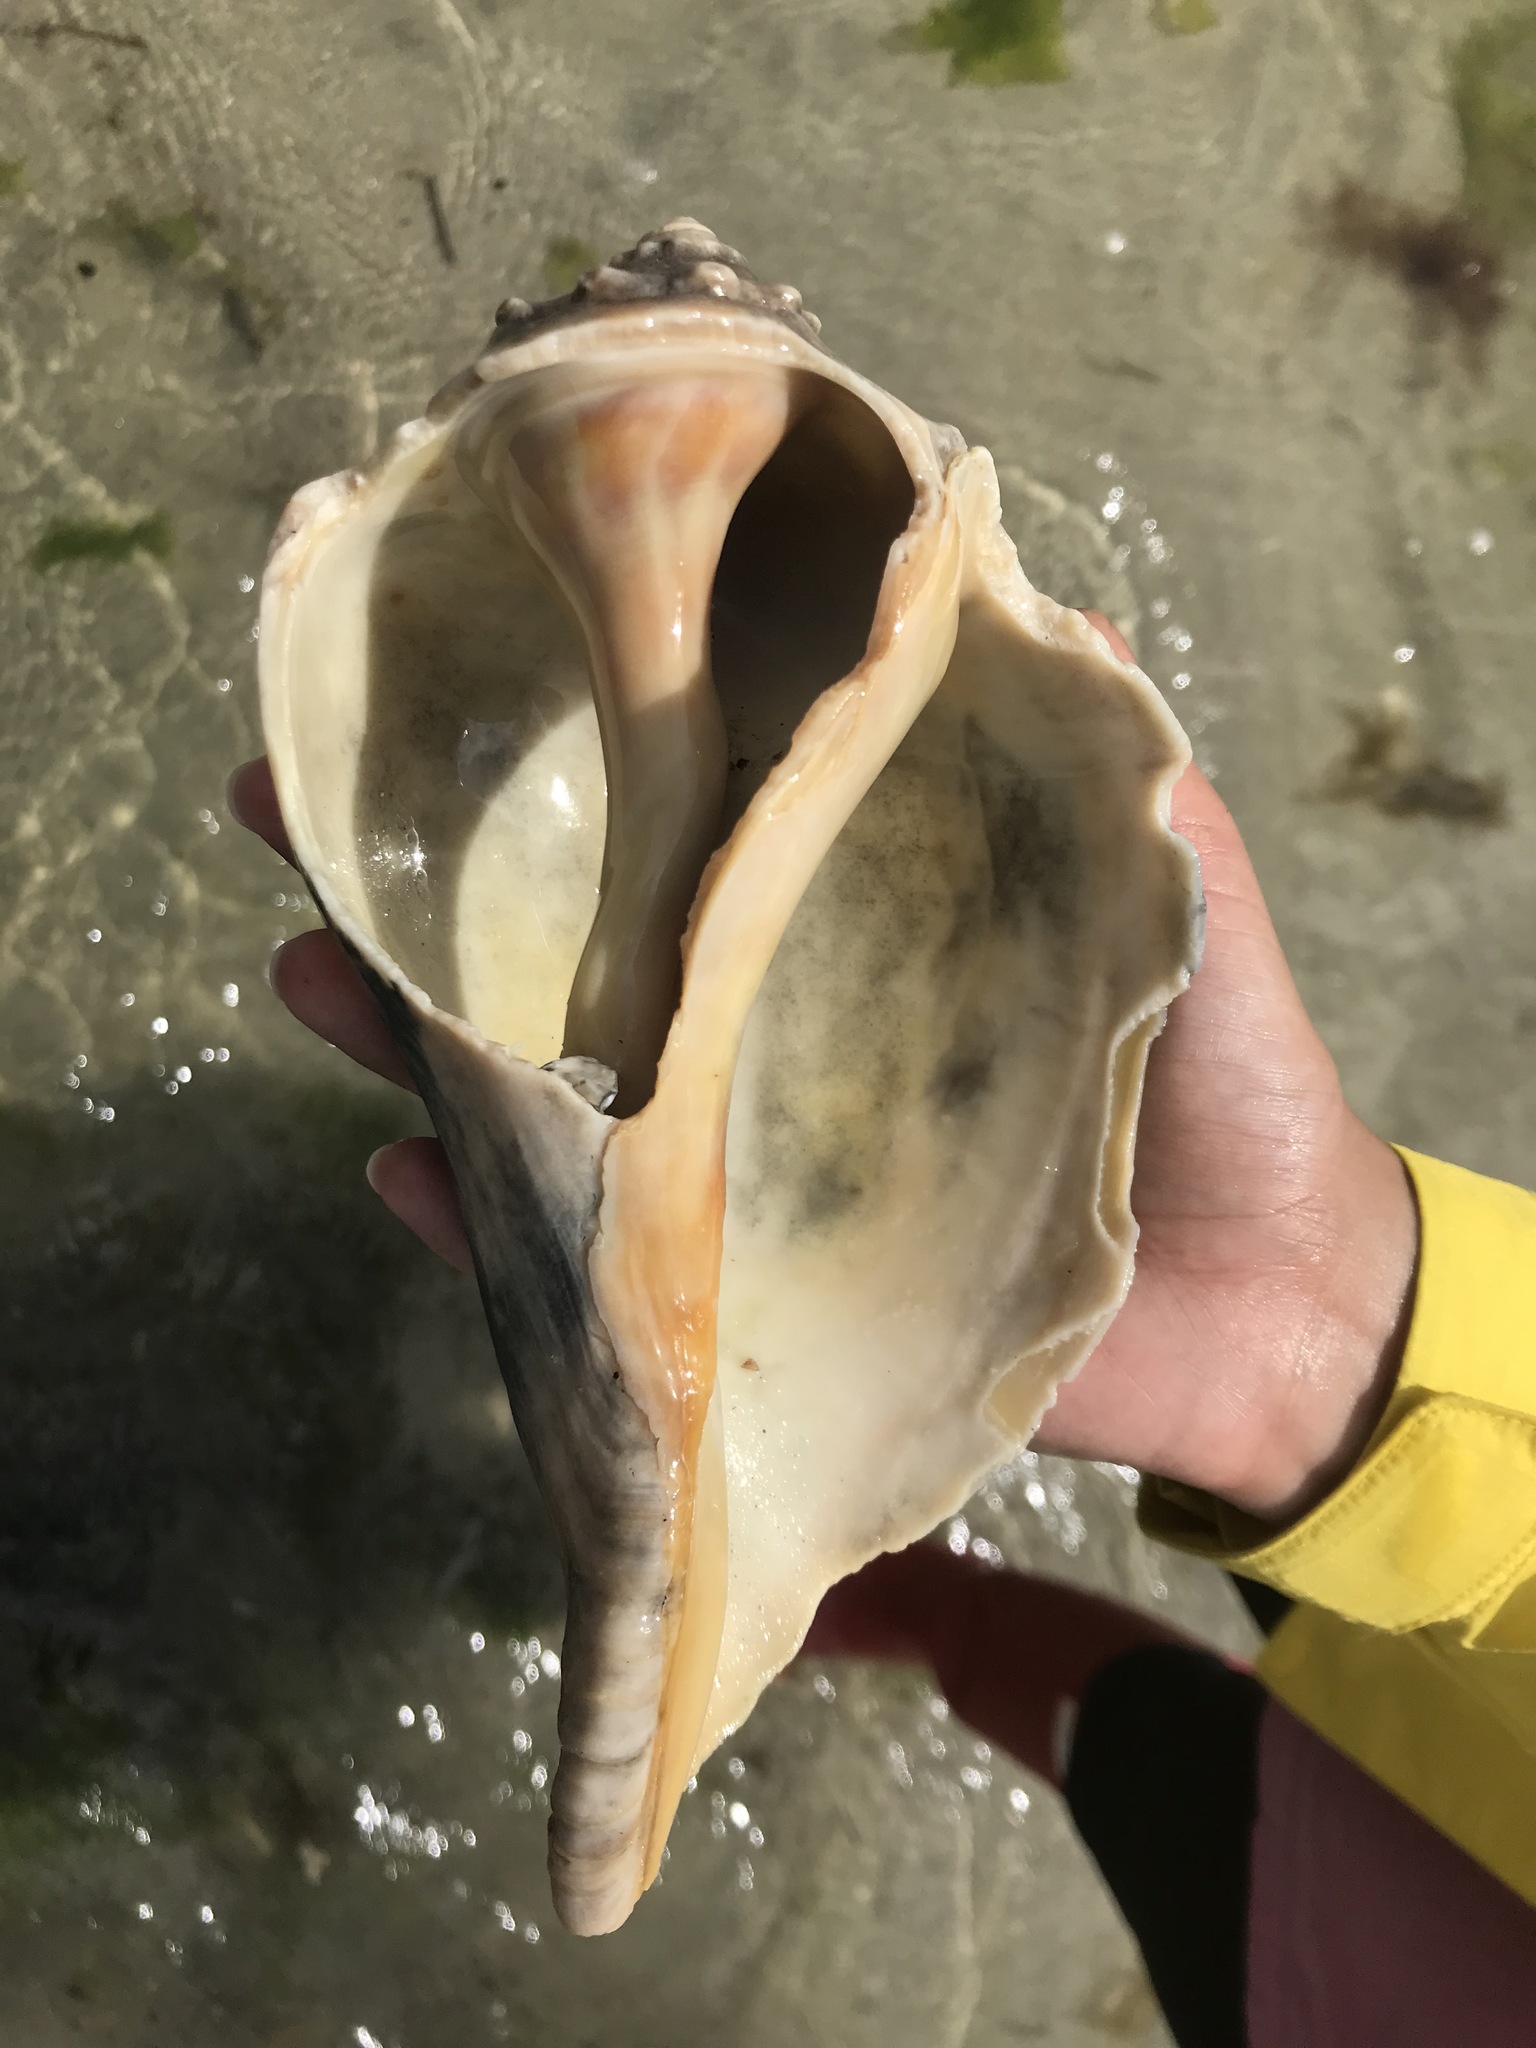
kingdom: Animalia
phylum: Mollusca
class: Gastropoda
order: Neogastropoda
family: Busyconidae
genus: Busycon
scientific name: Busycon carica
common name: Knobbed whelk
